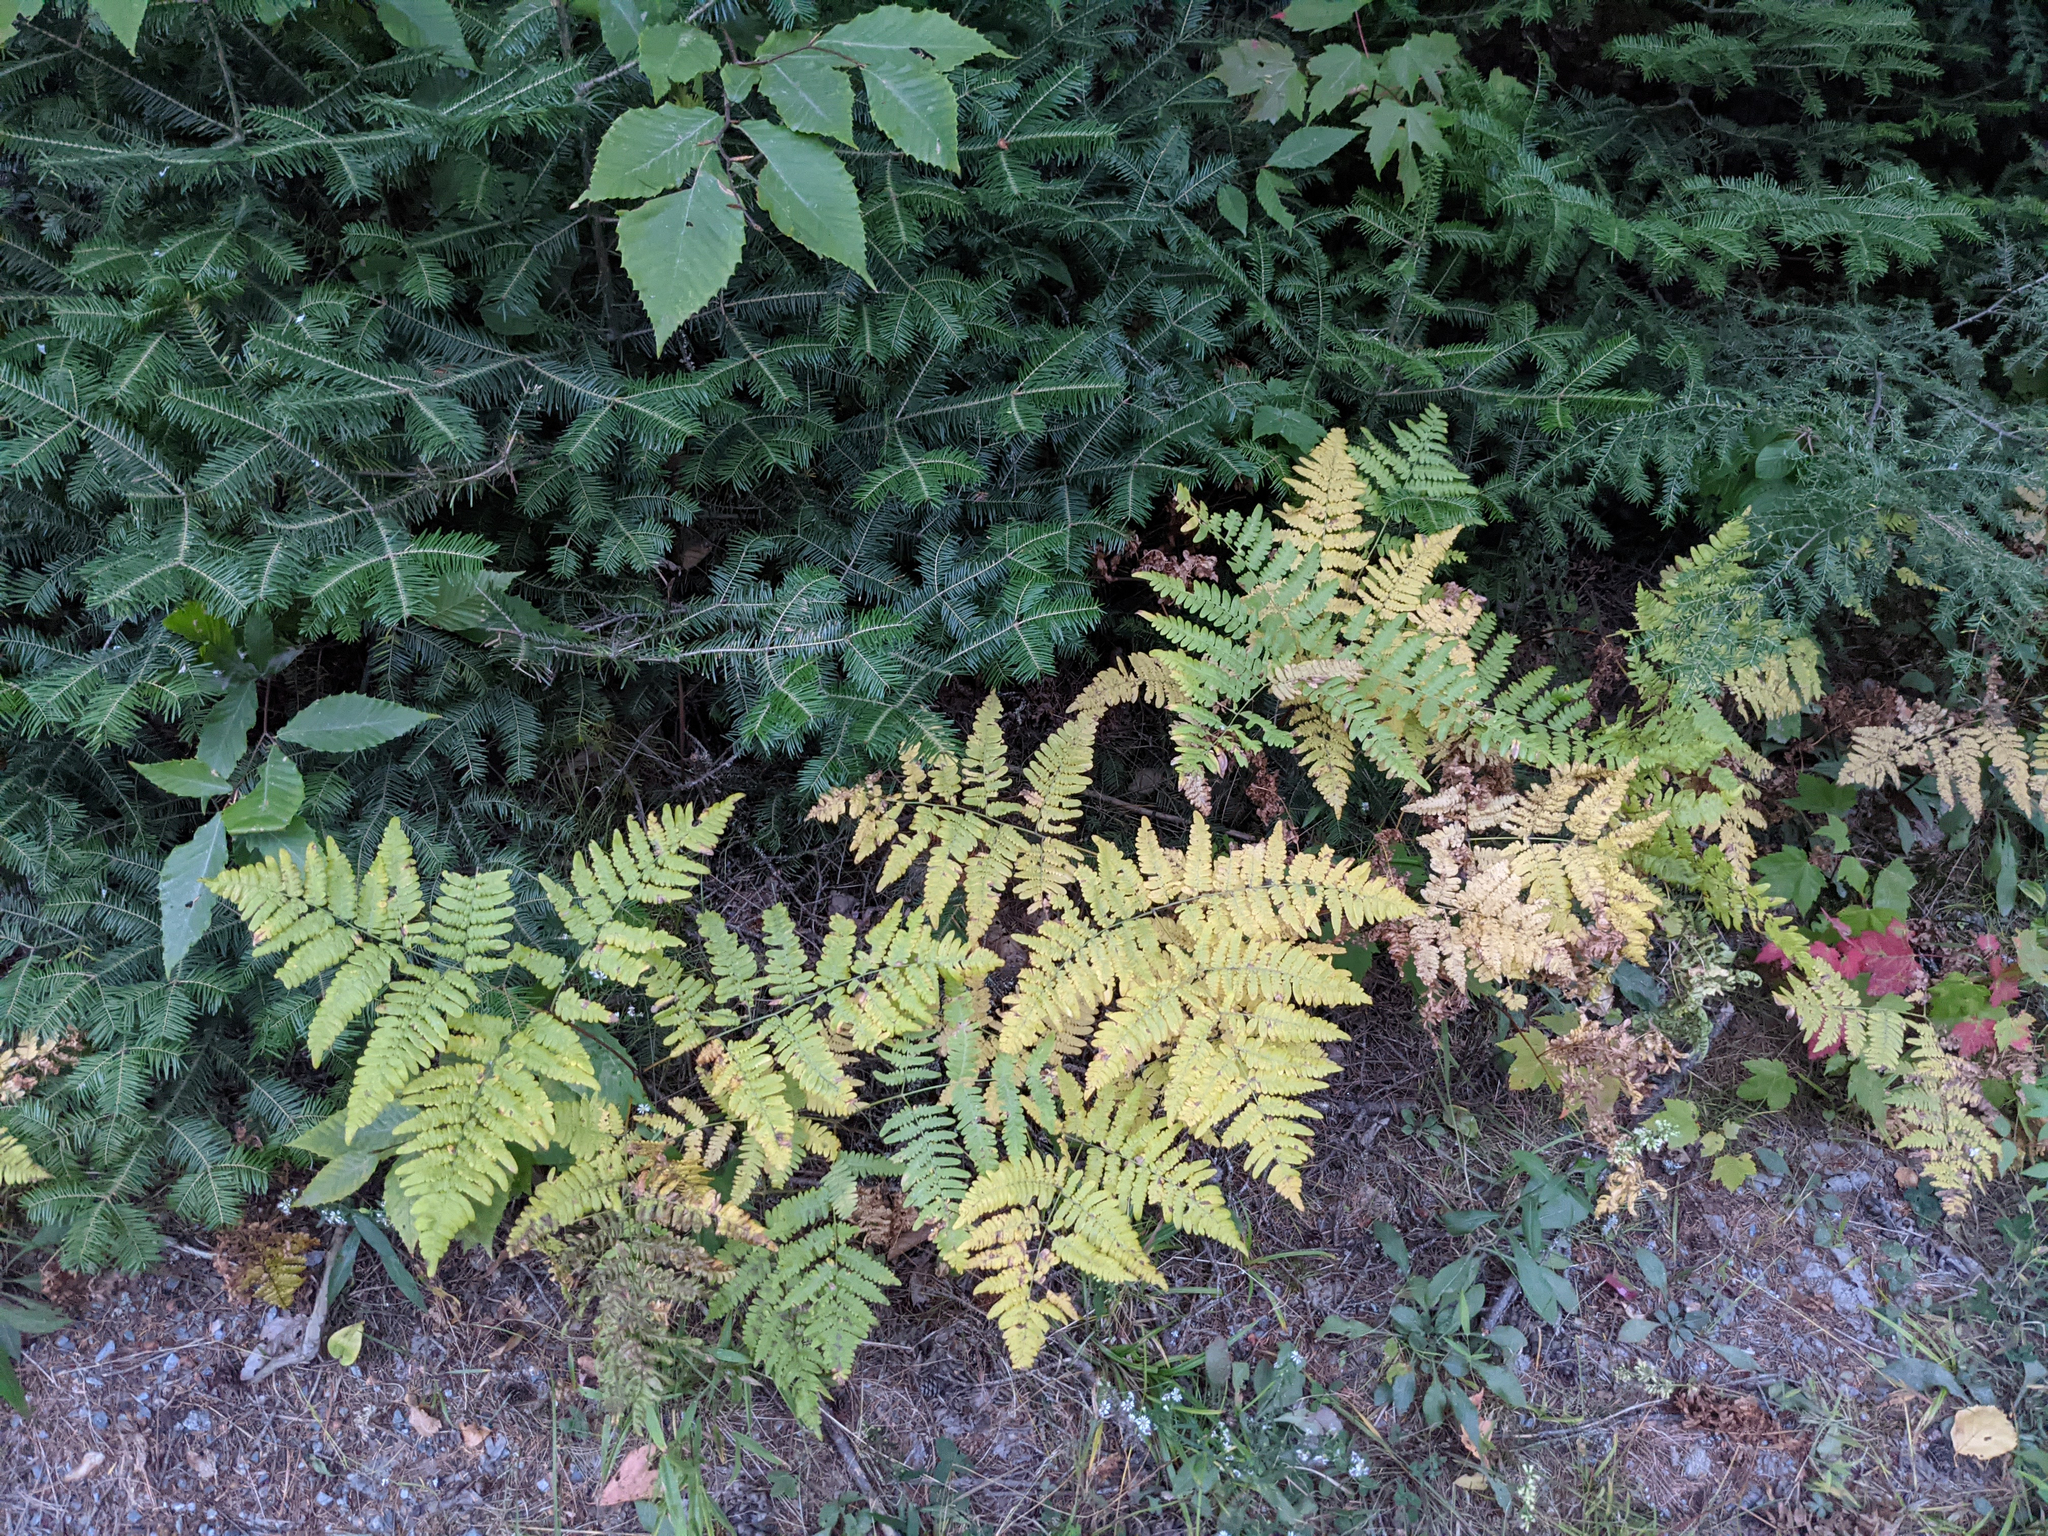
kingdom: Plantae
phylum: Tracheophyta
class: Polypodiopsida
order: Polypodiales
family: Dennstaedtiaceae
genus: Pteridium
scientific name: Pteridium aquilinum
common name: Bracken
